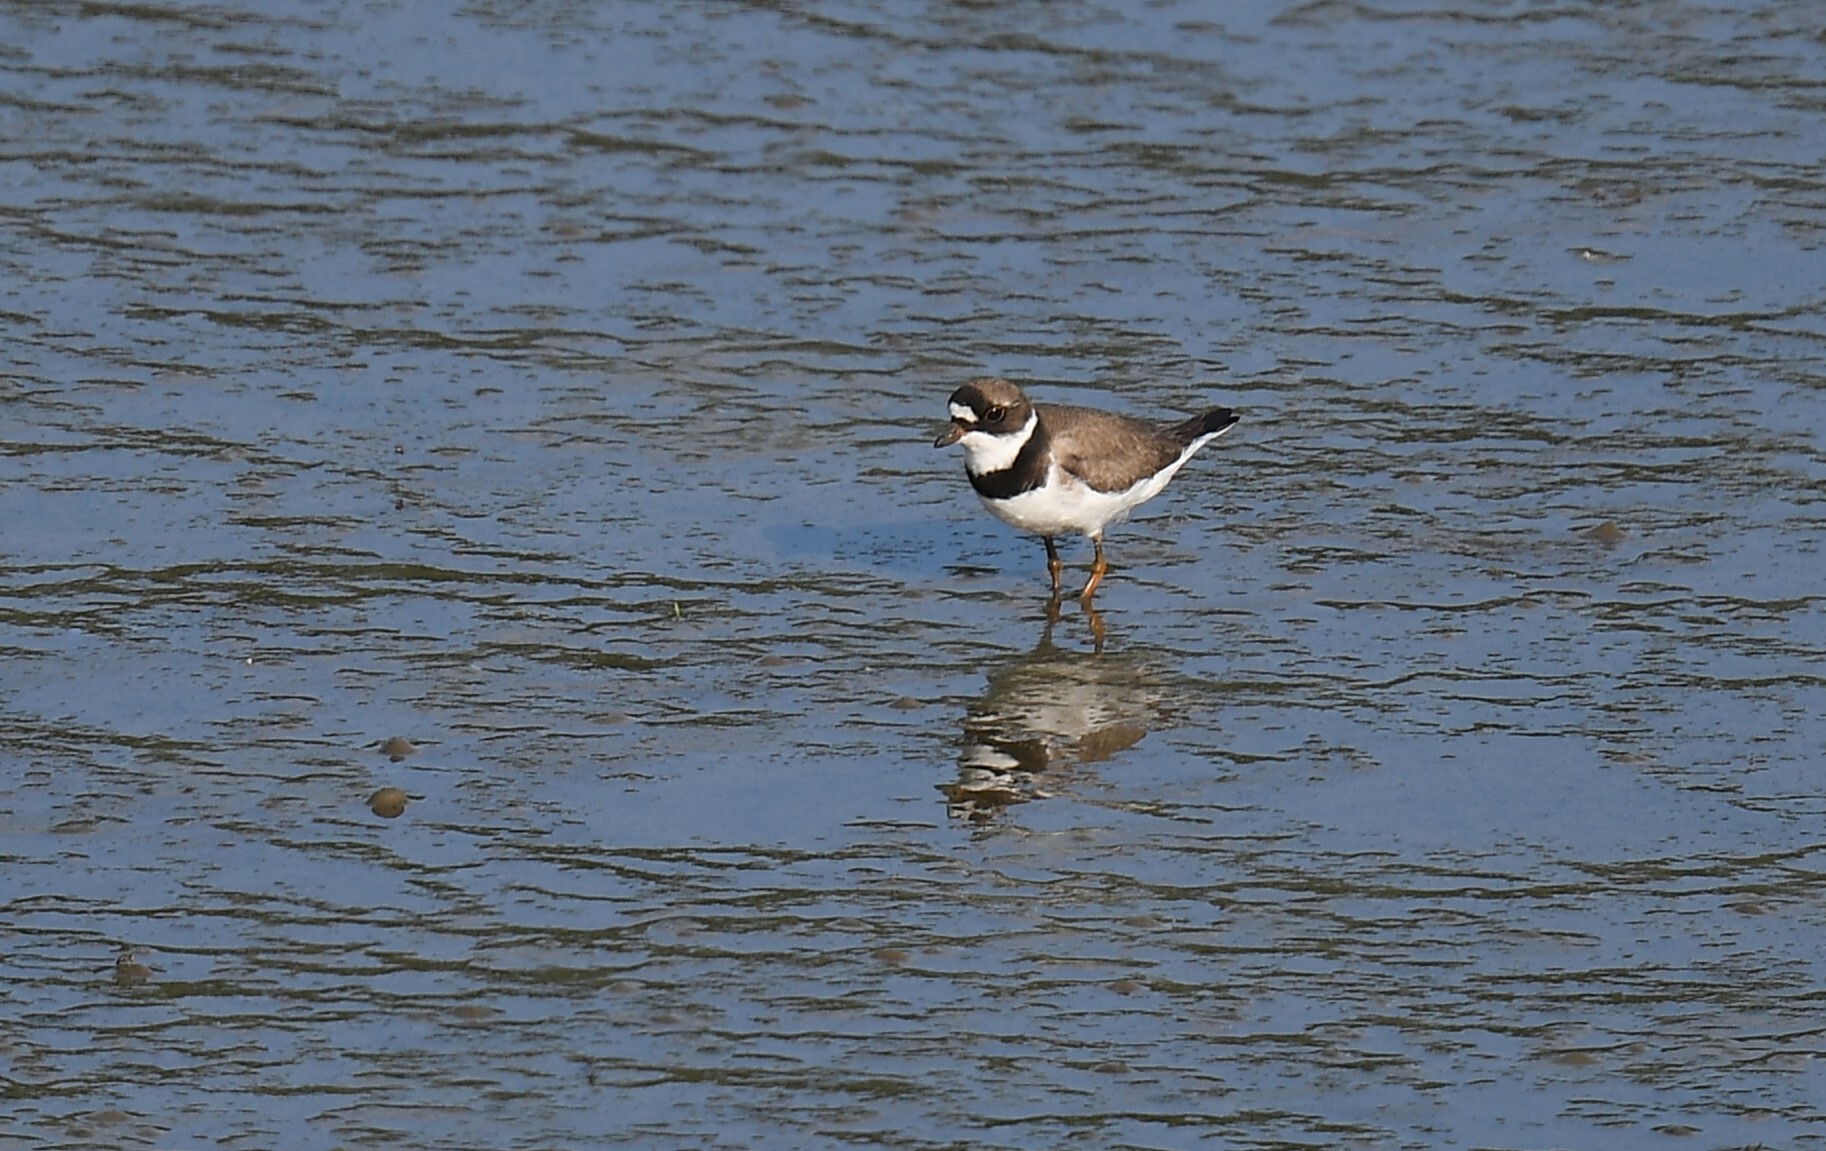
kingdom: Animalia
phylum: Chordata
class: Aves
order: Charadriiformes
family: Charadriidae
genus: Charadrius
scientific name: Charadrius semipalmatus
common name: Semipalmated plover
